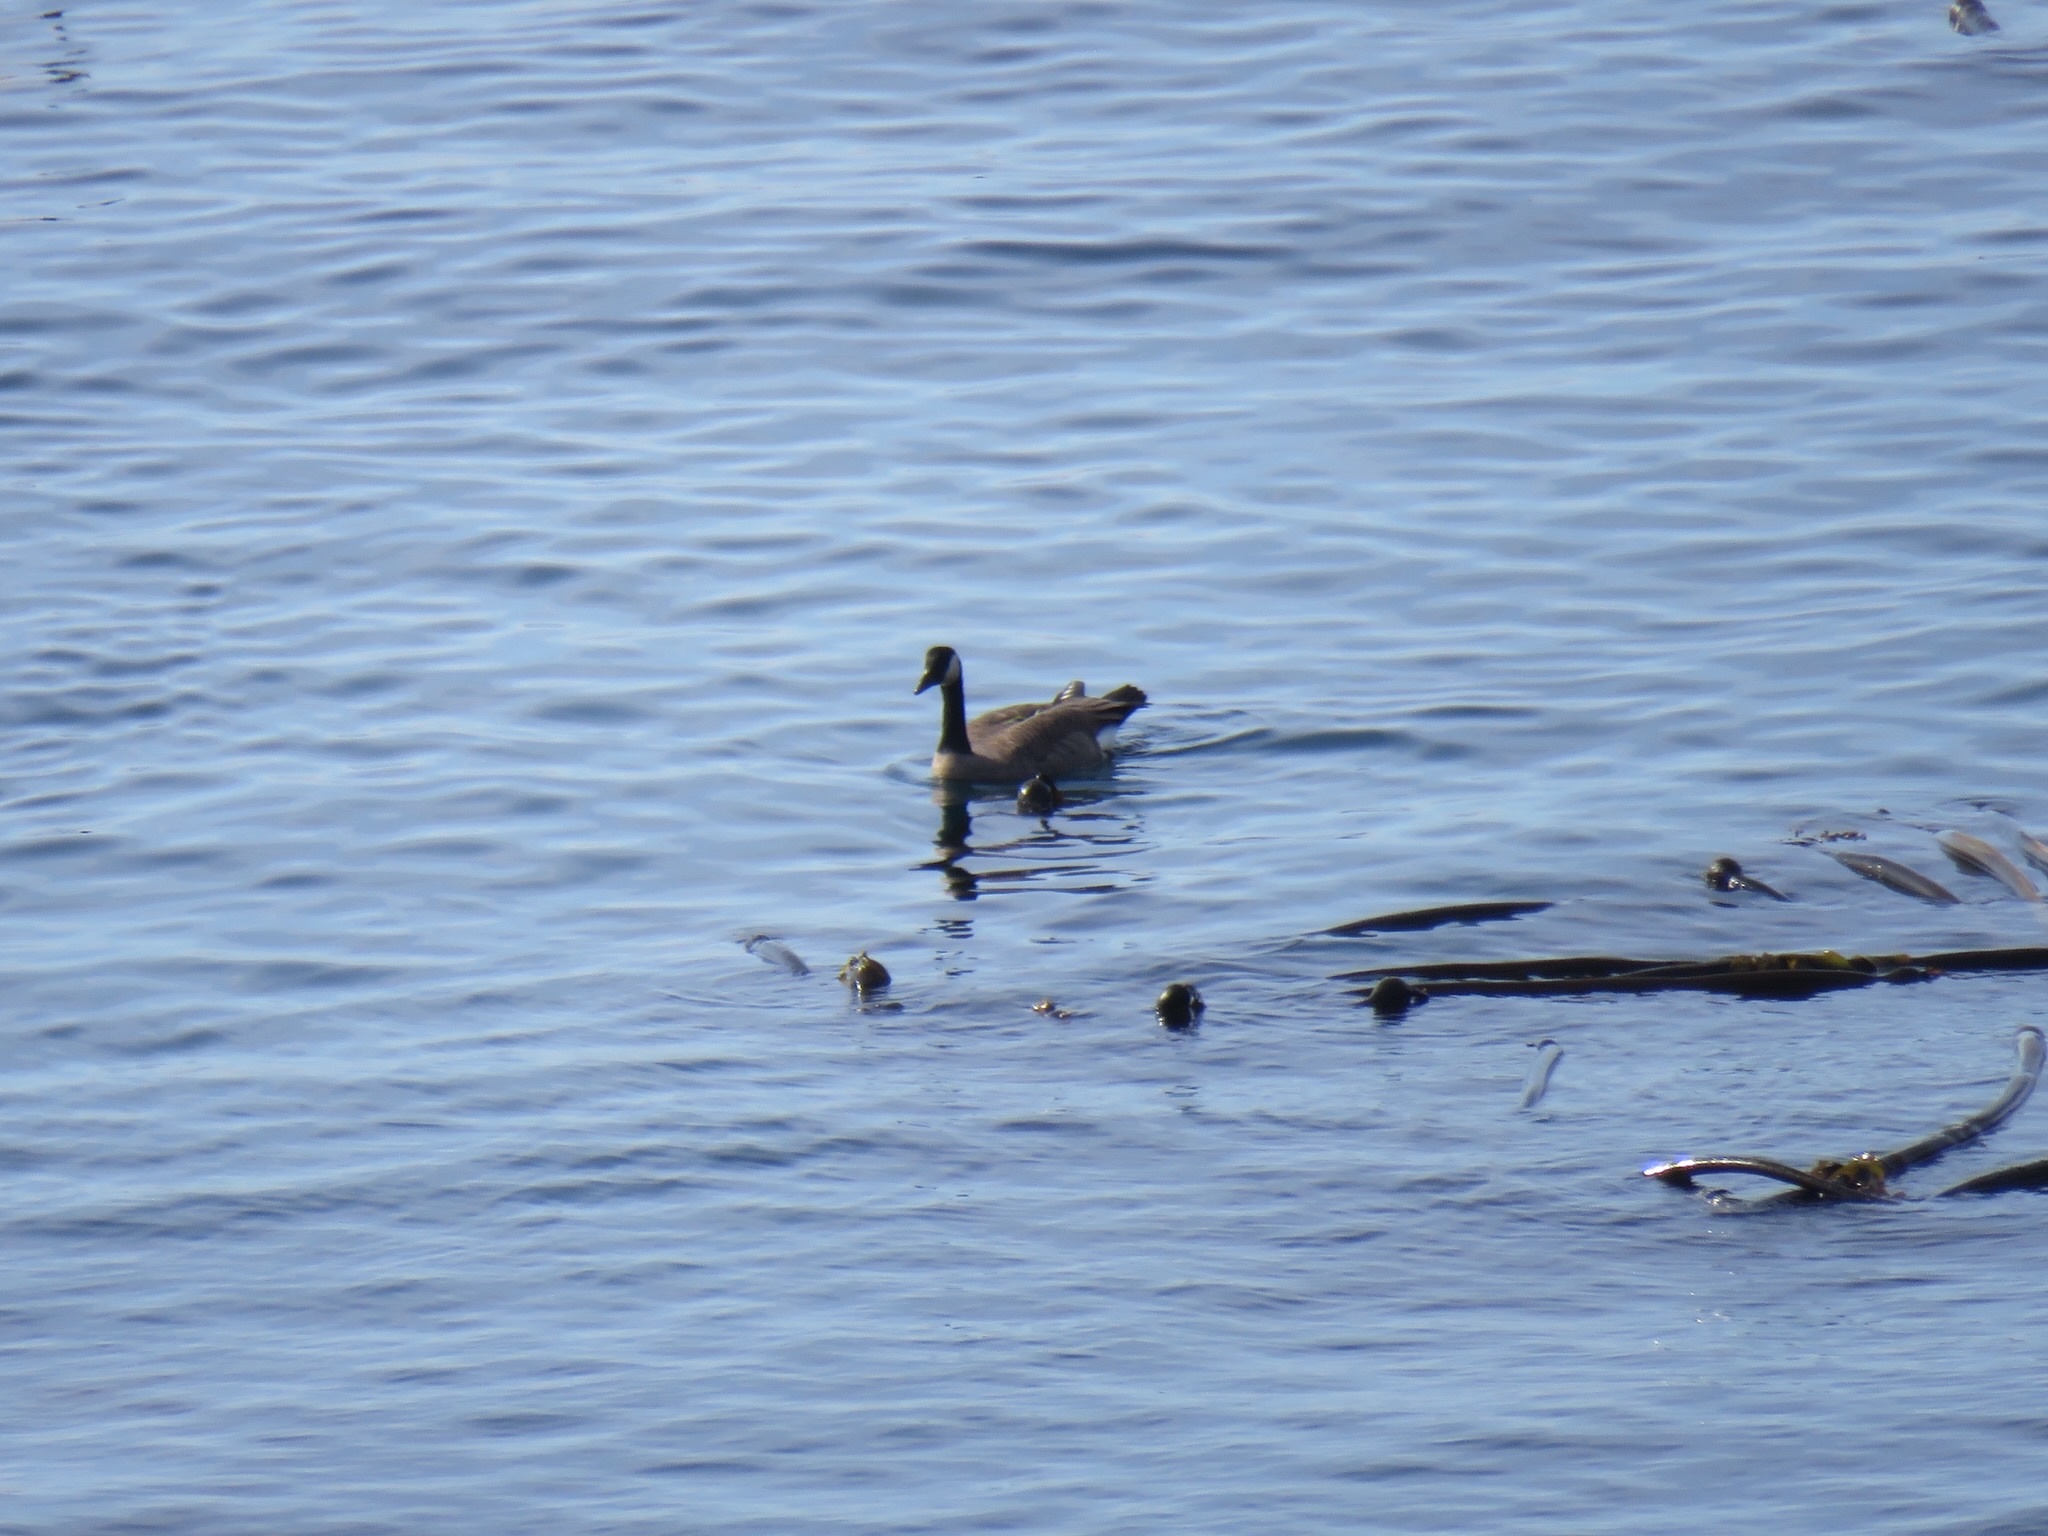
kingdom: Animalia
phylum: Chordata
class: Aves
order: Anseriformes
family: Anatidae
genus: Branta
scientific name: Branta canadensis
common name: Canada goose
